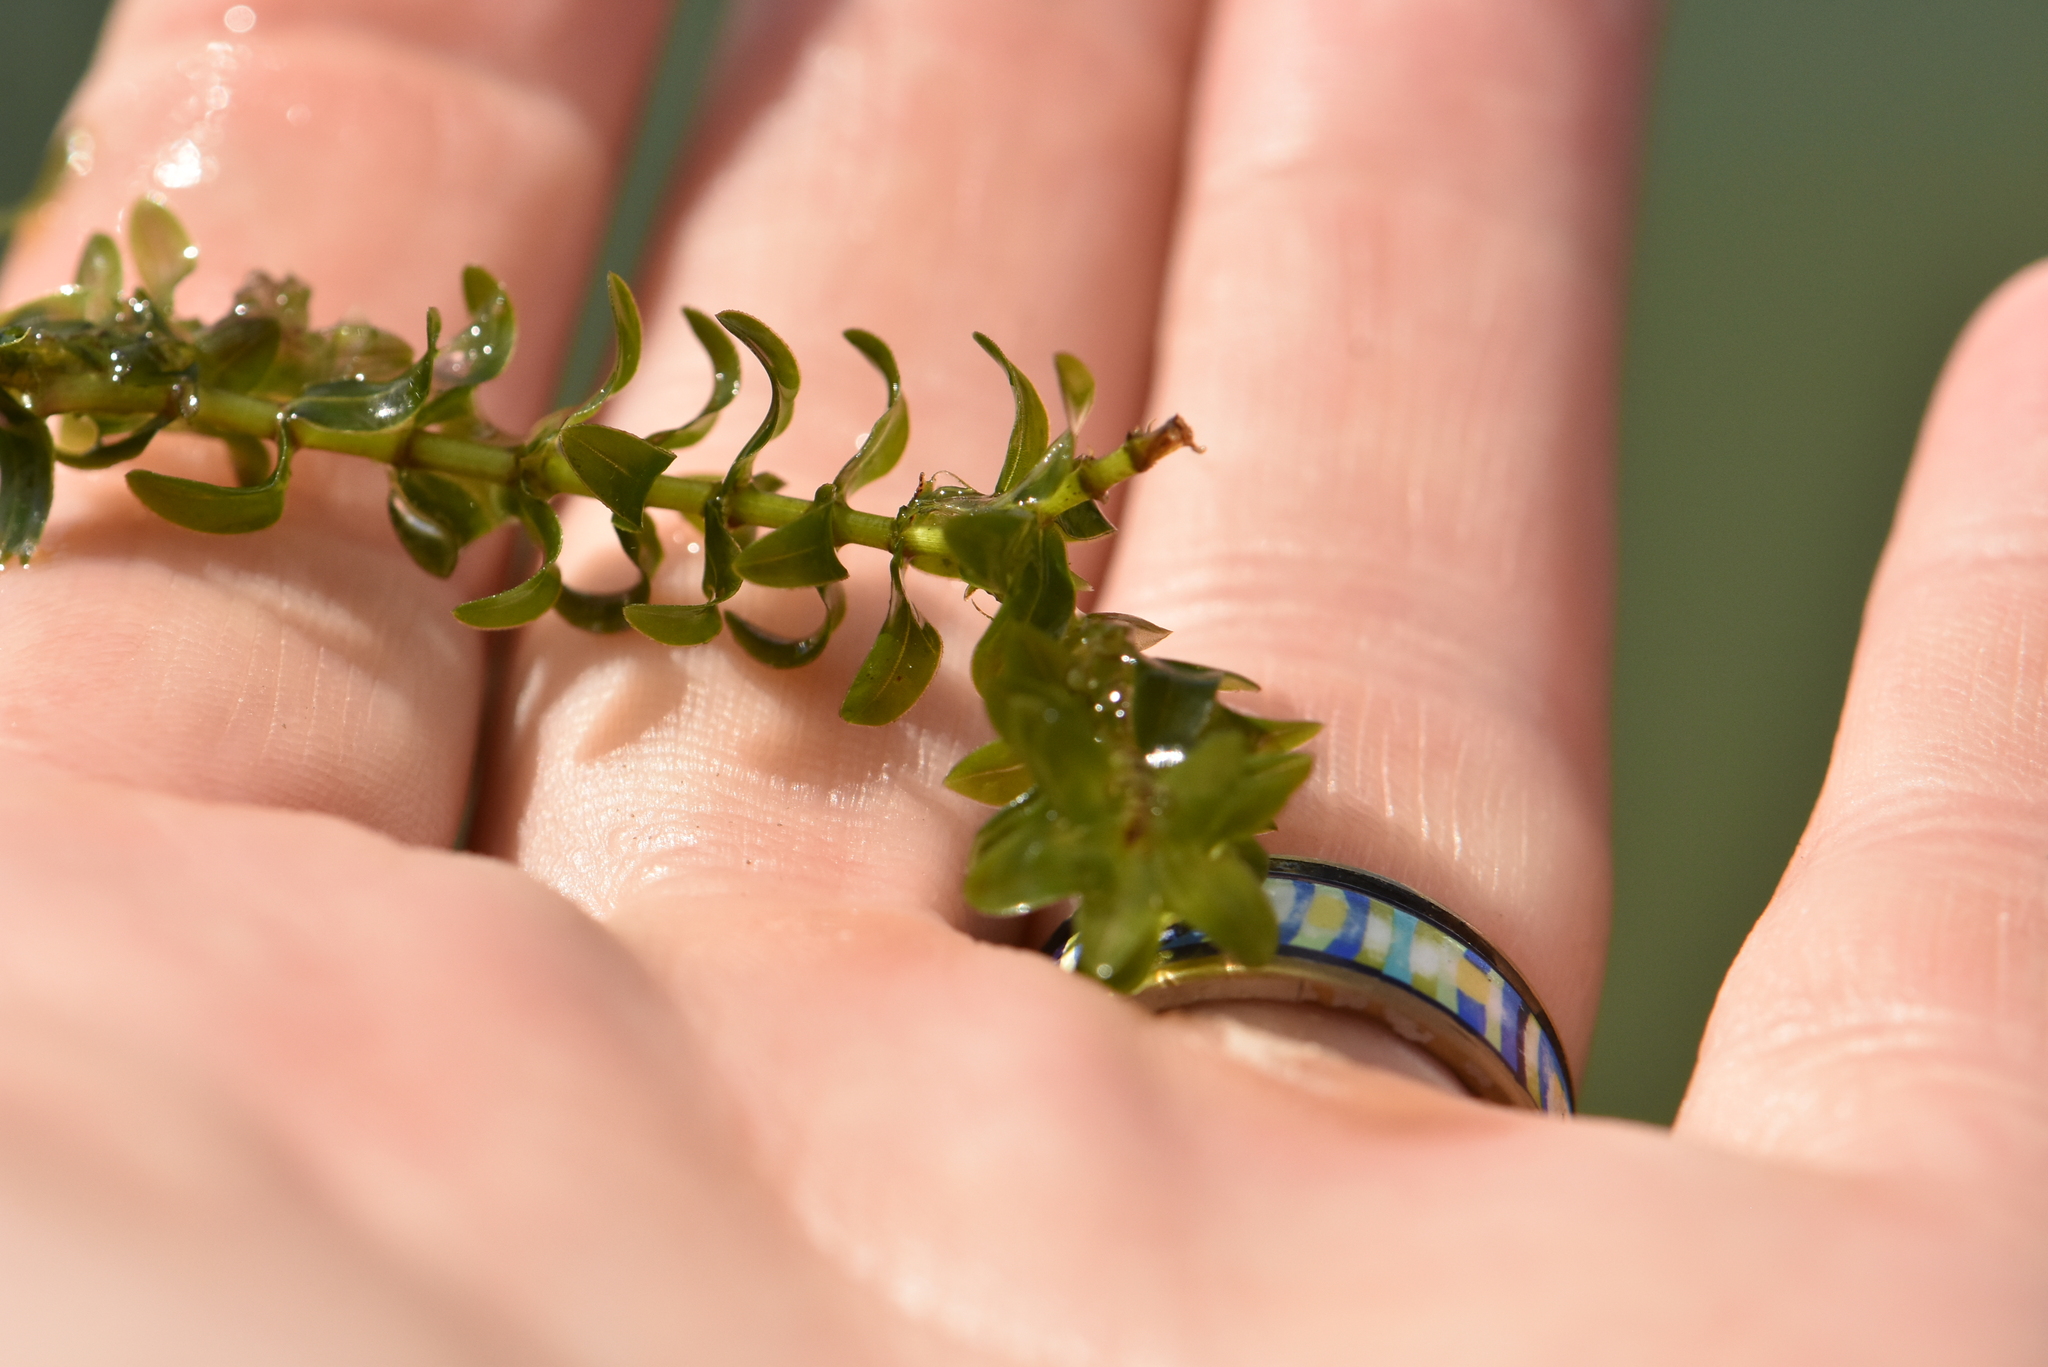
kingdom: Plantae
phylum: Tracheophyta
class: Liliopsida
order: Alismatales
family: Hydrocharitaceae
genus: Elodea
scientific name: Elodea canadensis
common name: Canadian waterweed
